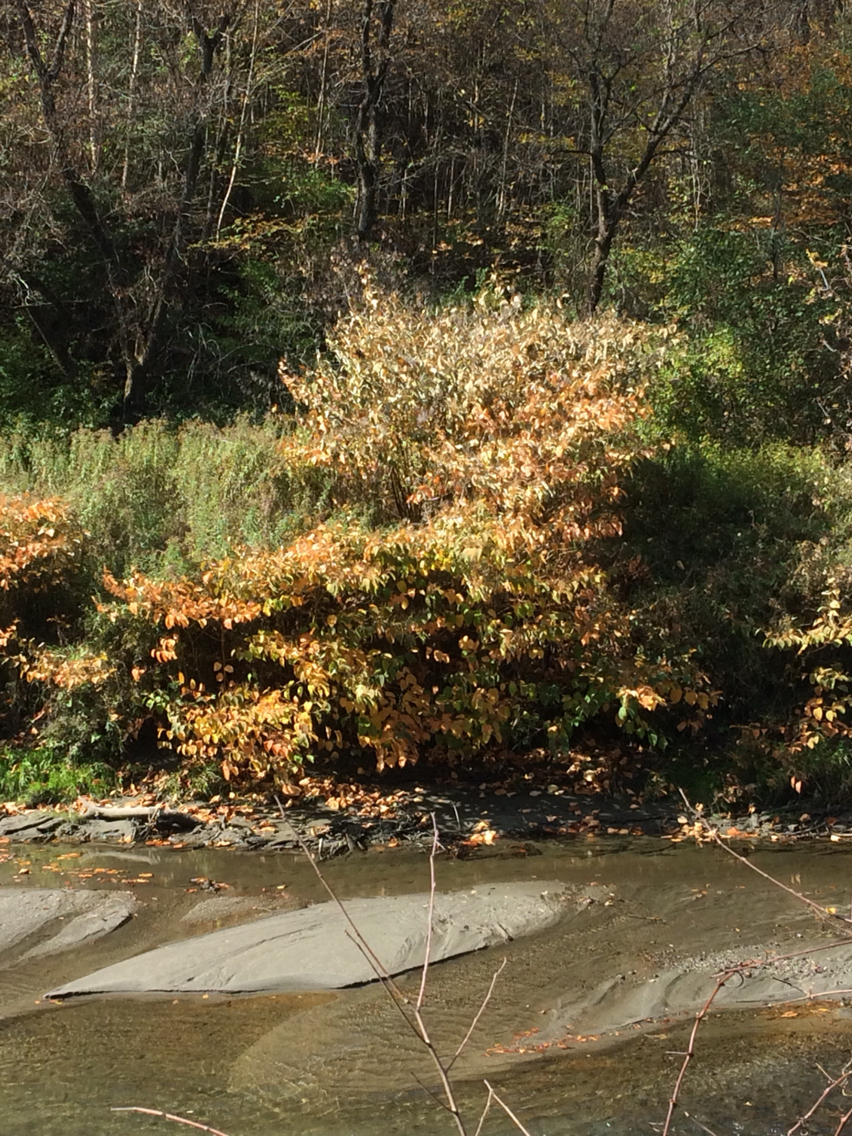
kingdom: Plantae
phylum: Tracheophyta
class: Magnoliopsida
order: Caryophyllales
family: Polygonaceae
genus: Reynoutria
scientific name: Reynoutria japonica
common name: Japanese knotweed
